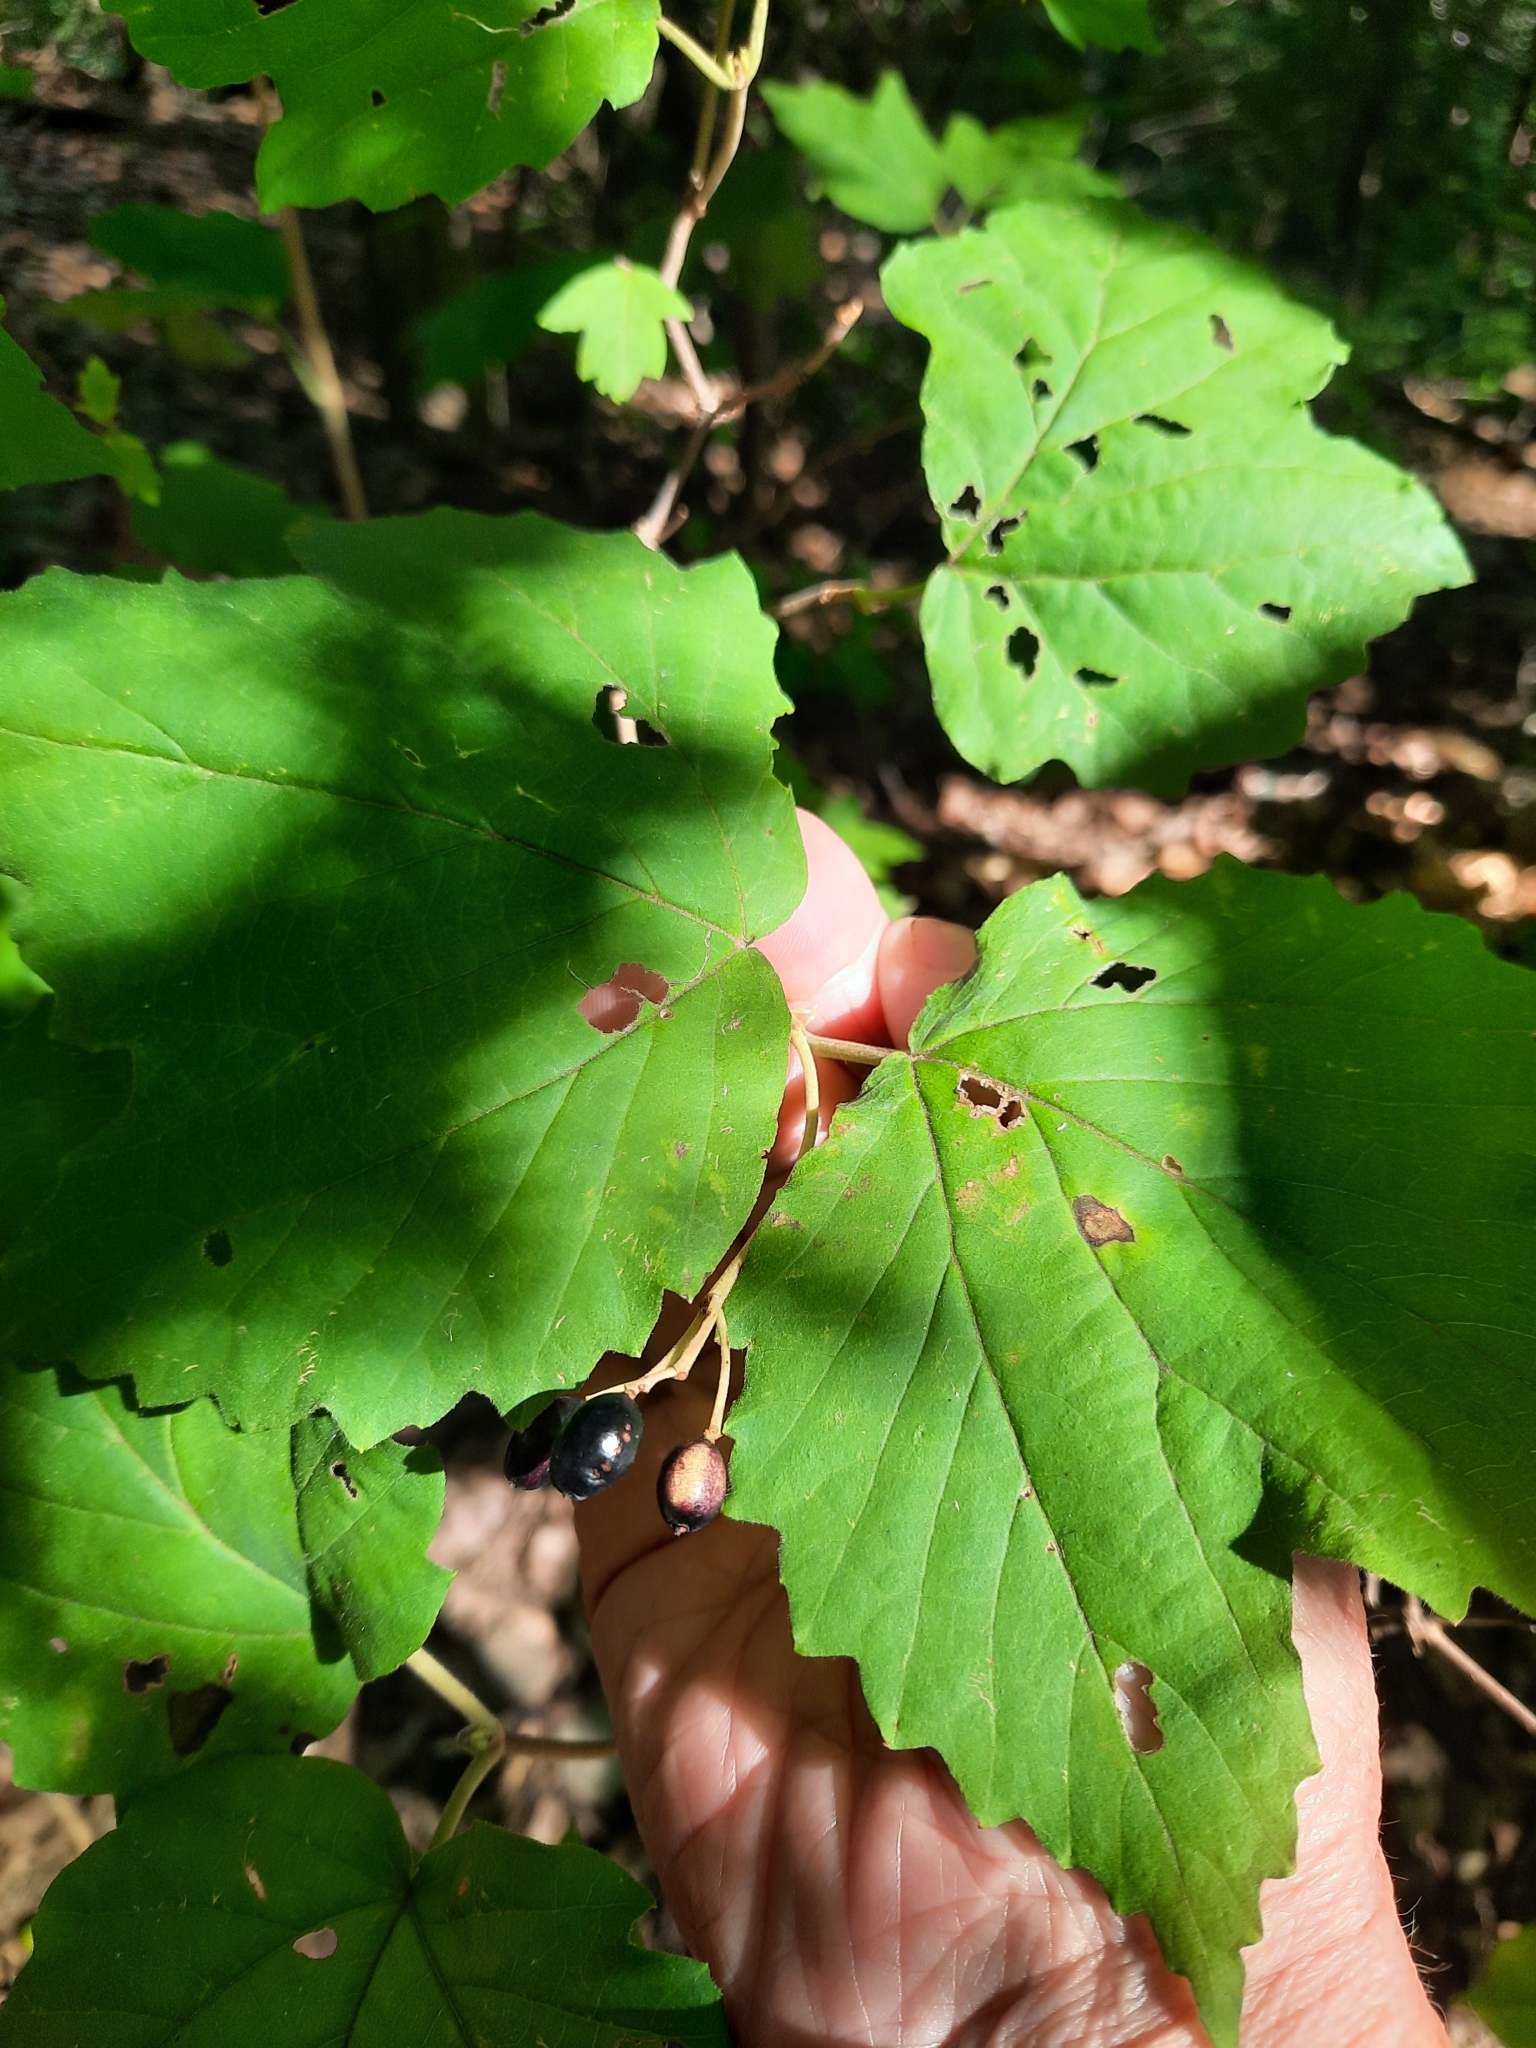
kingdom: Plantae
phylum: Tracheophyta
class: Magnoliopsida
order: Dipsacales
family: Viburnaceae
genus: Viburnum
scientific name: Viburnum acerifolium
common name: Dockmackie
